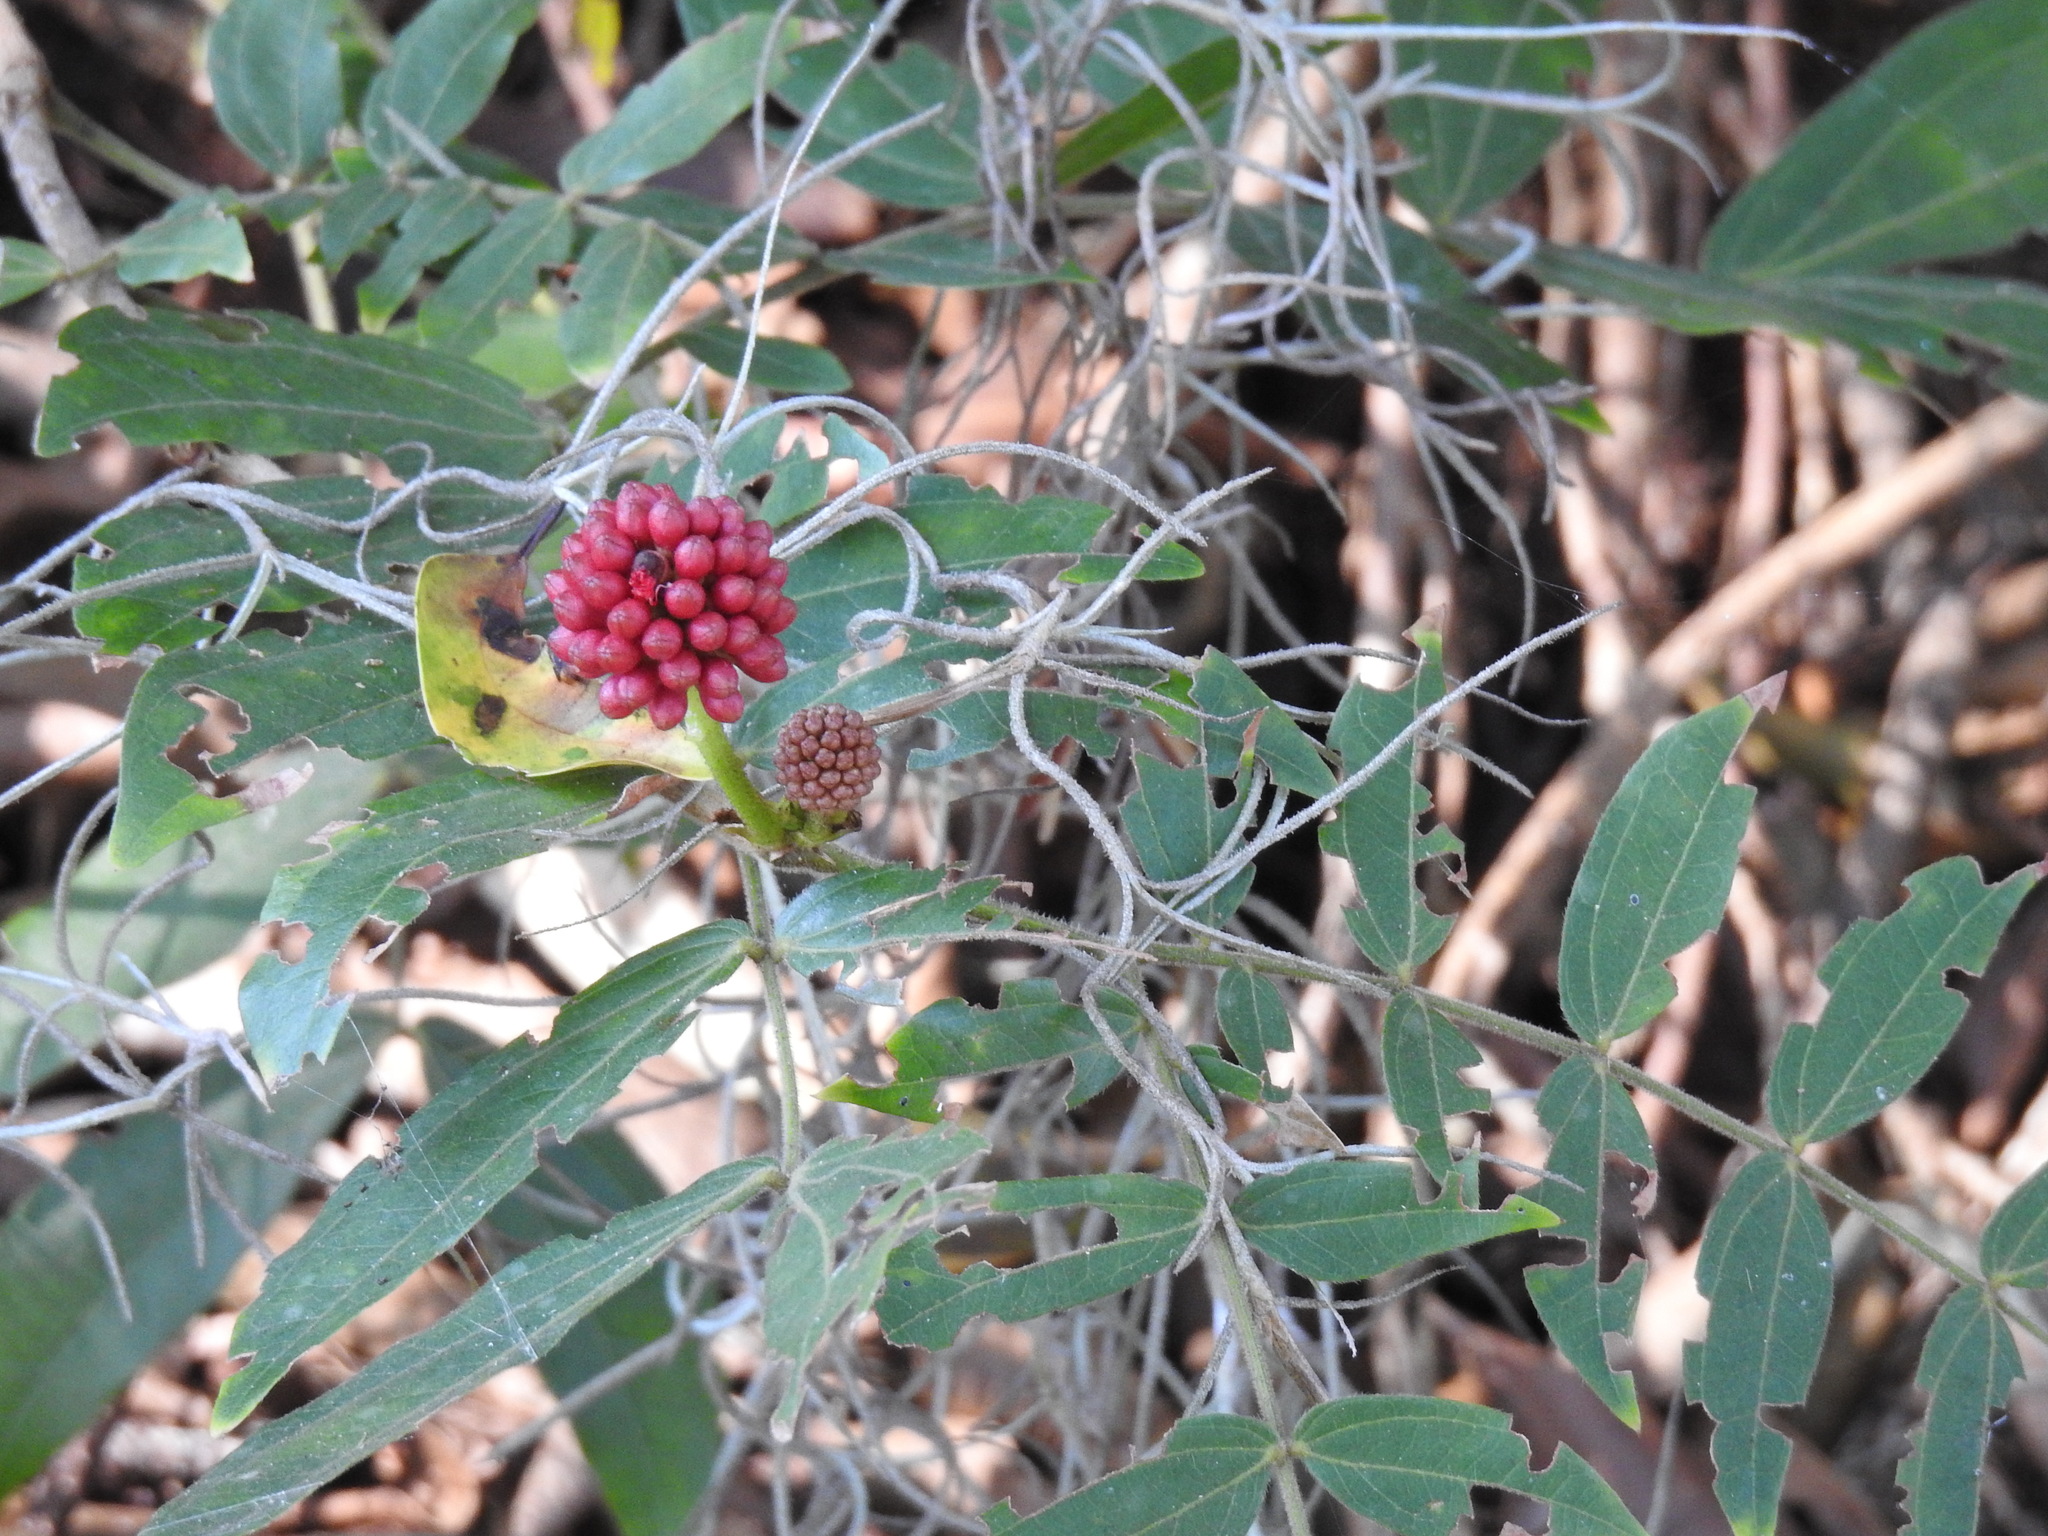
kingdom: Plantae
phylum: Tracheophyta
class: Magnoliopsida
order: Fabales
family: Fabaceae
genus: Calliandra
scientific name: Calliandra haematocephala
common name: Blood red tassel flower
